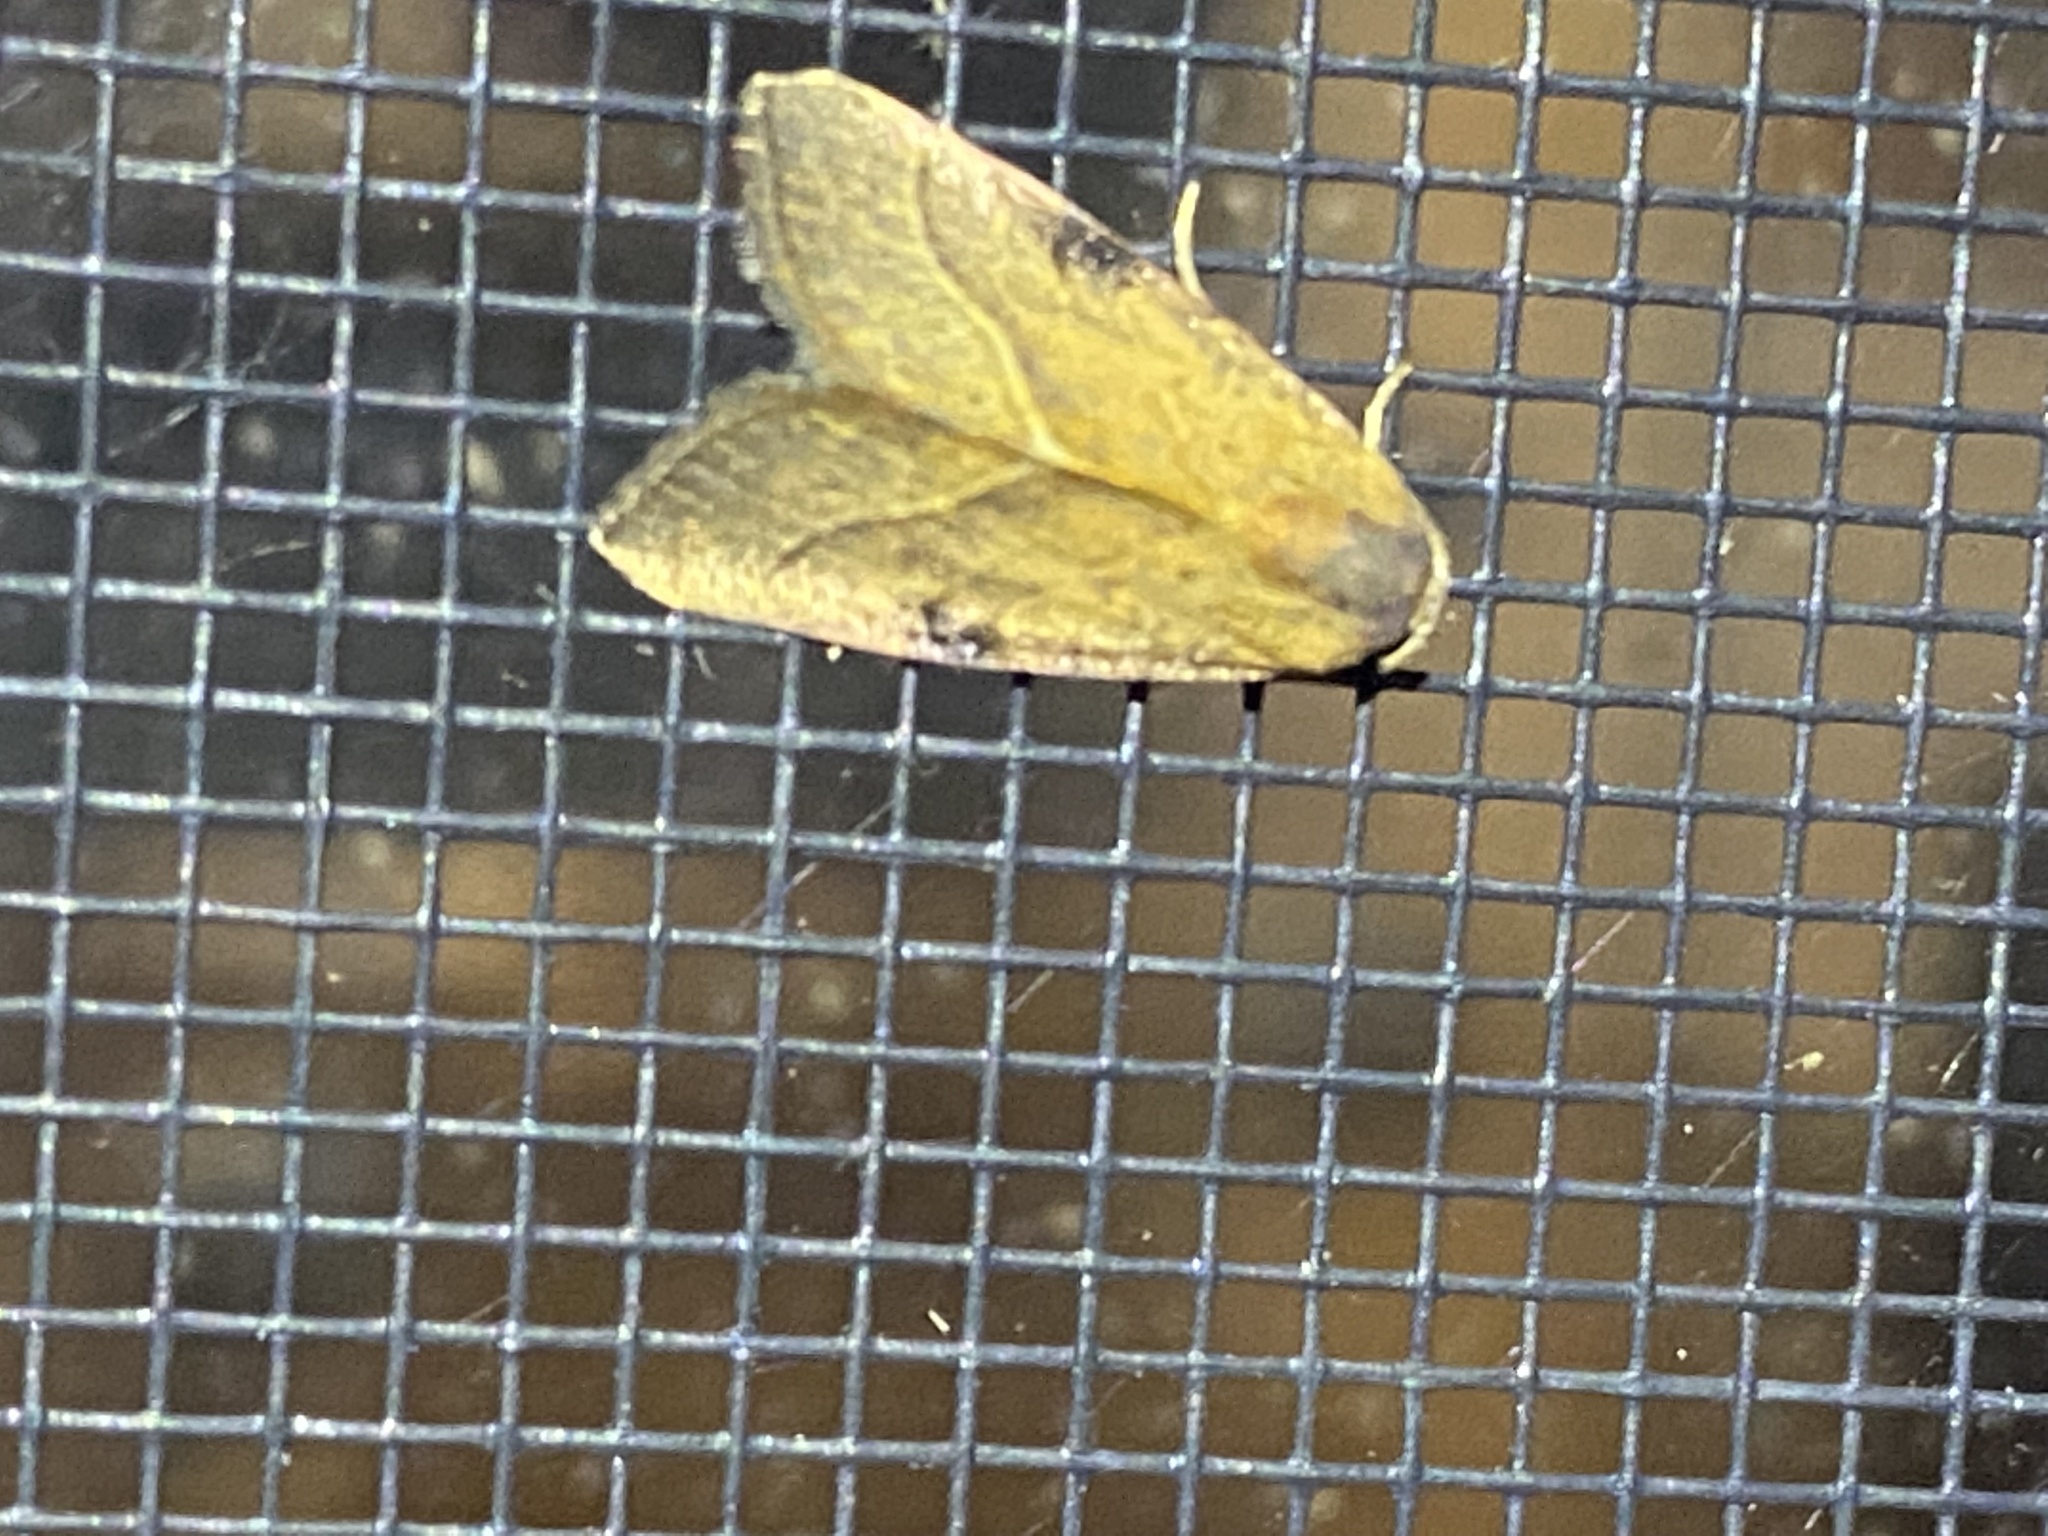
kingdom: Animalia
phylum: Arthropoda
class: Insecta
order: Lepidoptera
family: Noctuidae
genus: Galgula
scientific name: Galgula partita
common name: Wedgeling
